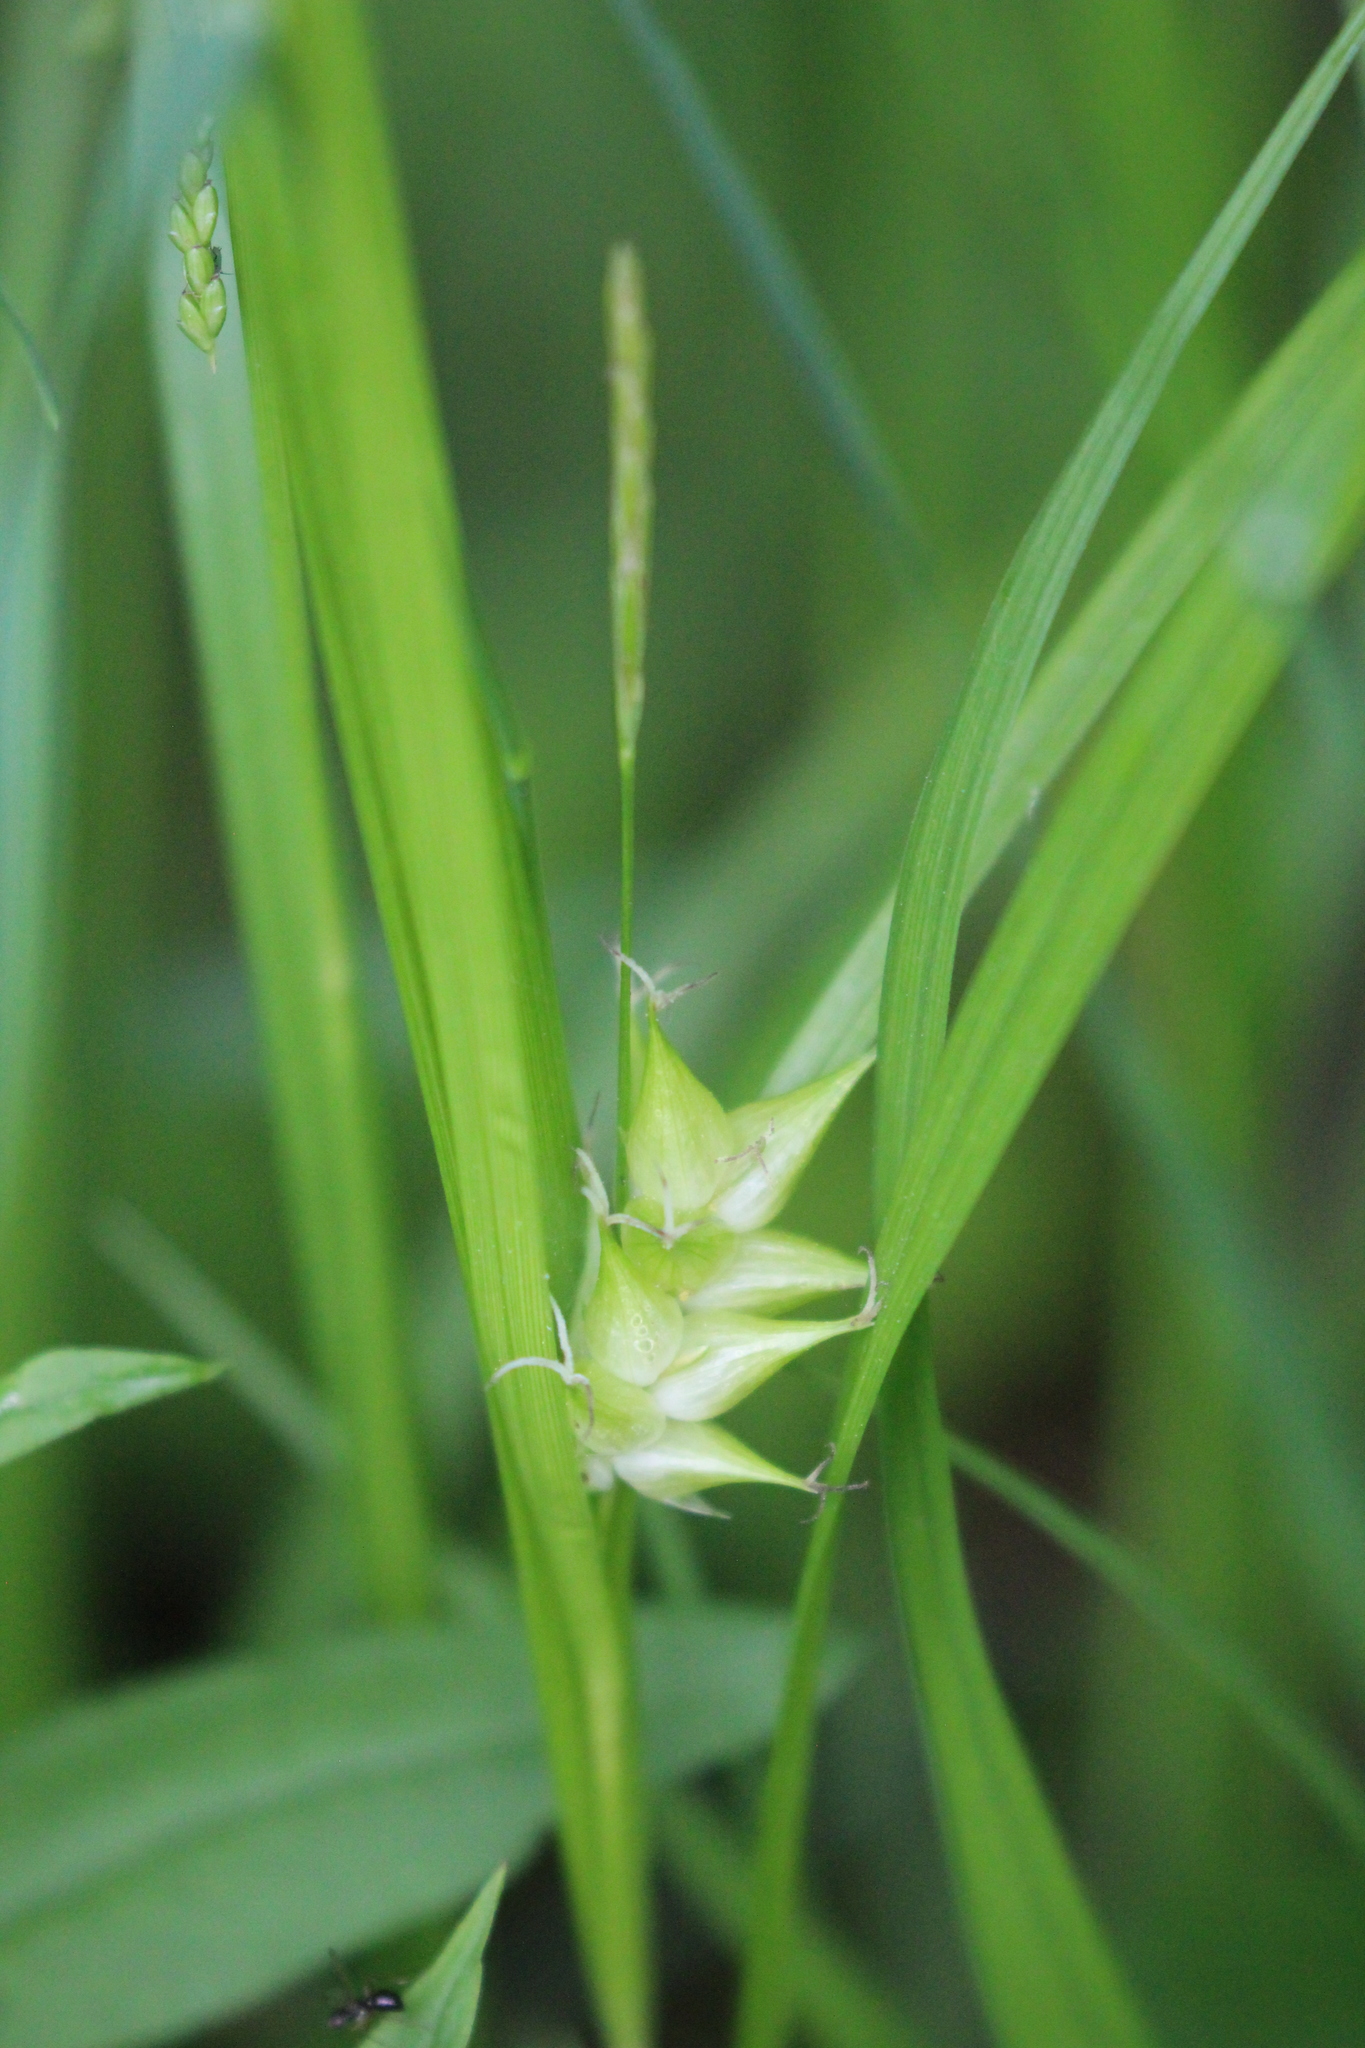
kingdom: Plantae
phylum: Tracheophyta
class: Liliopsida
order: Poales
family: Cyperaceae
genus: Carex
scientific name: Carex intumescens
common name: Greater bladder sedge
